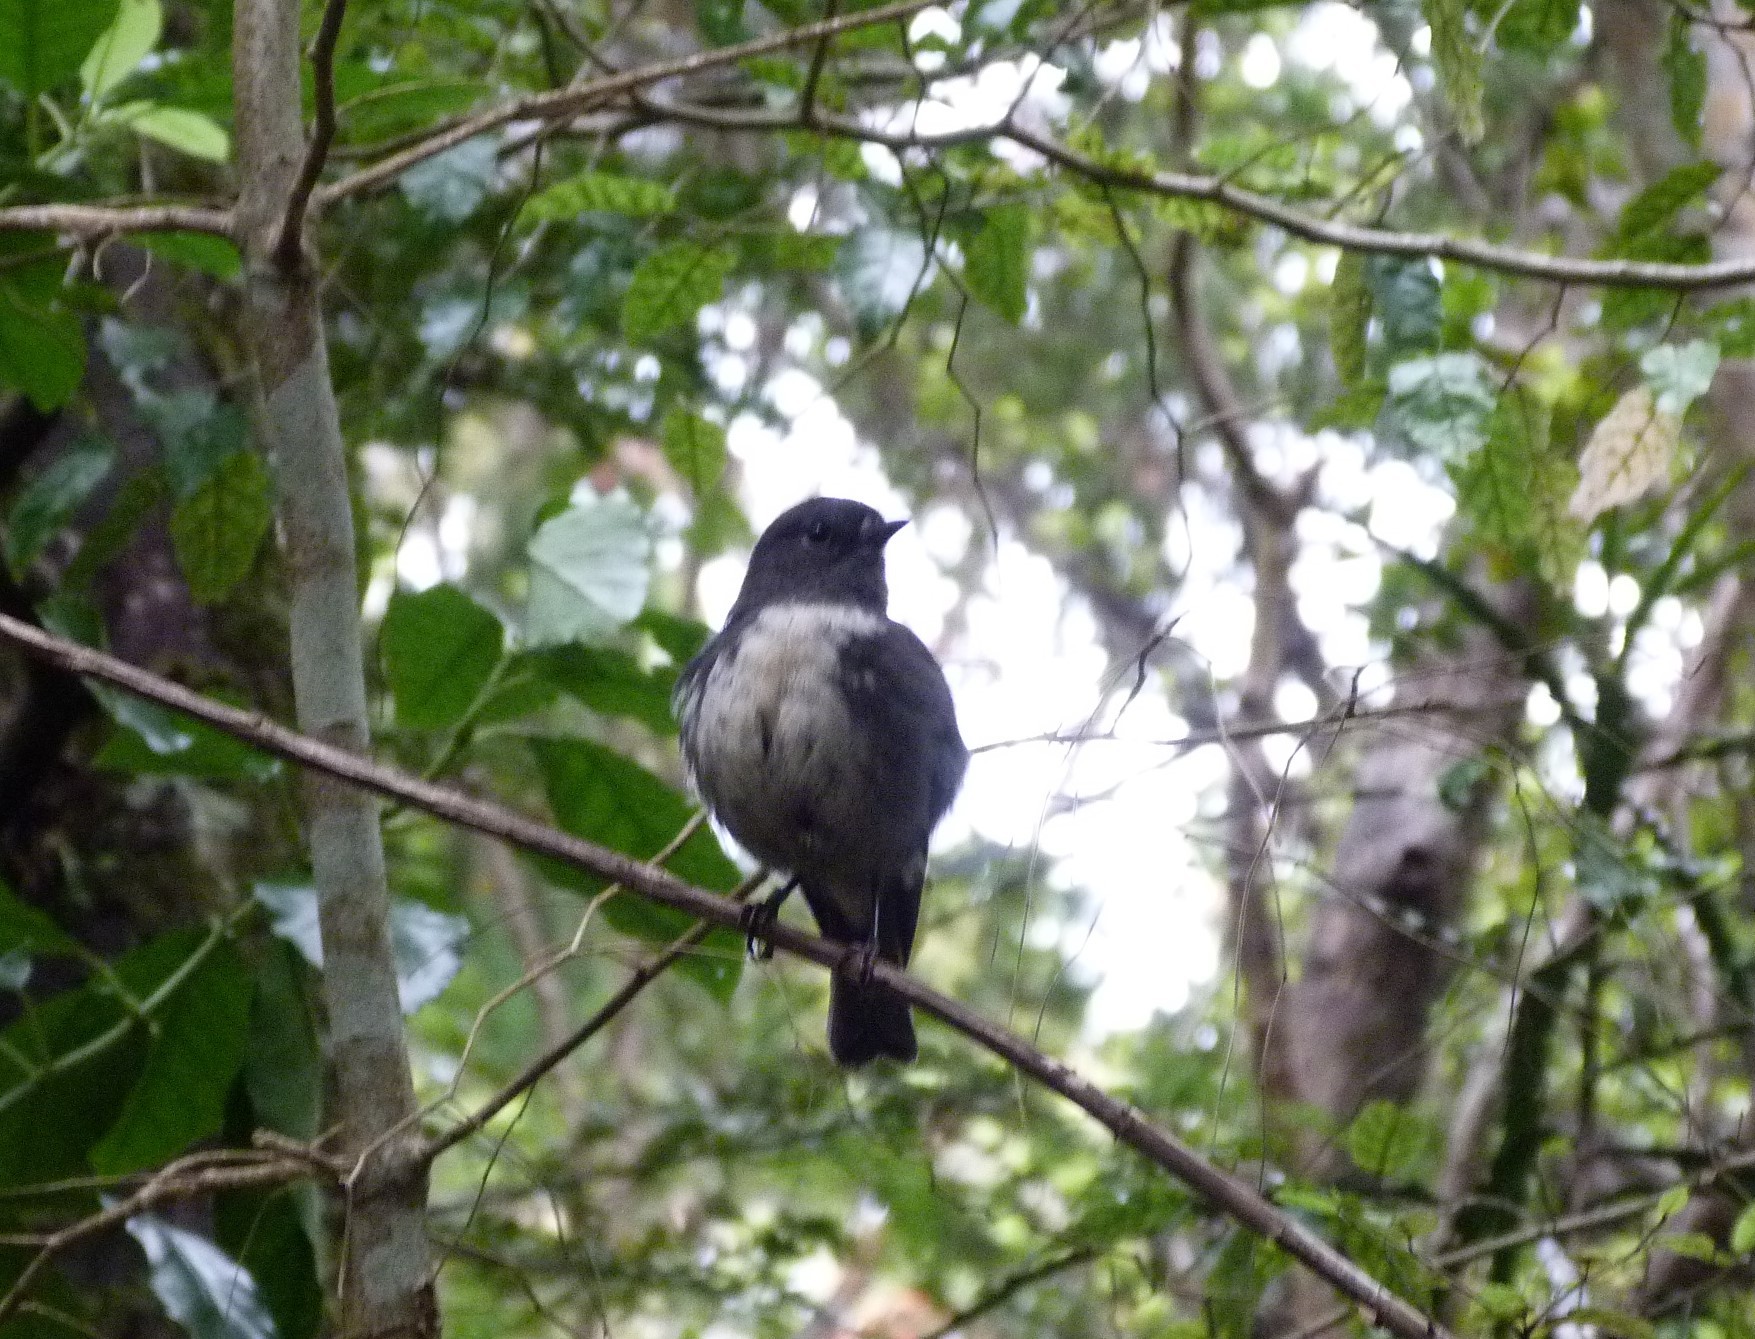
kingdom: Animalia
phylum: Chordata
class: Aves
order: Passeriformes
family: Petroicidae
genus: Petroica
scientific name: Petroica australis
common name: New zealand robin
